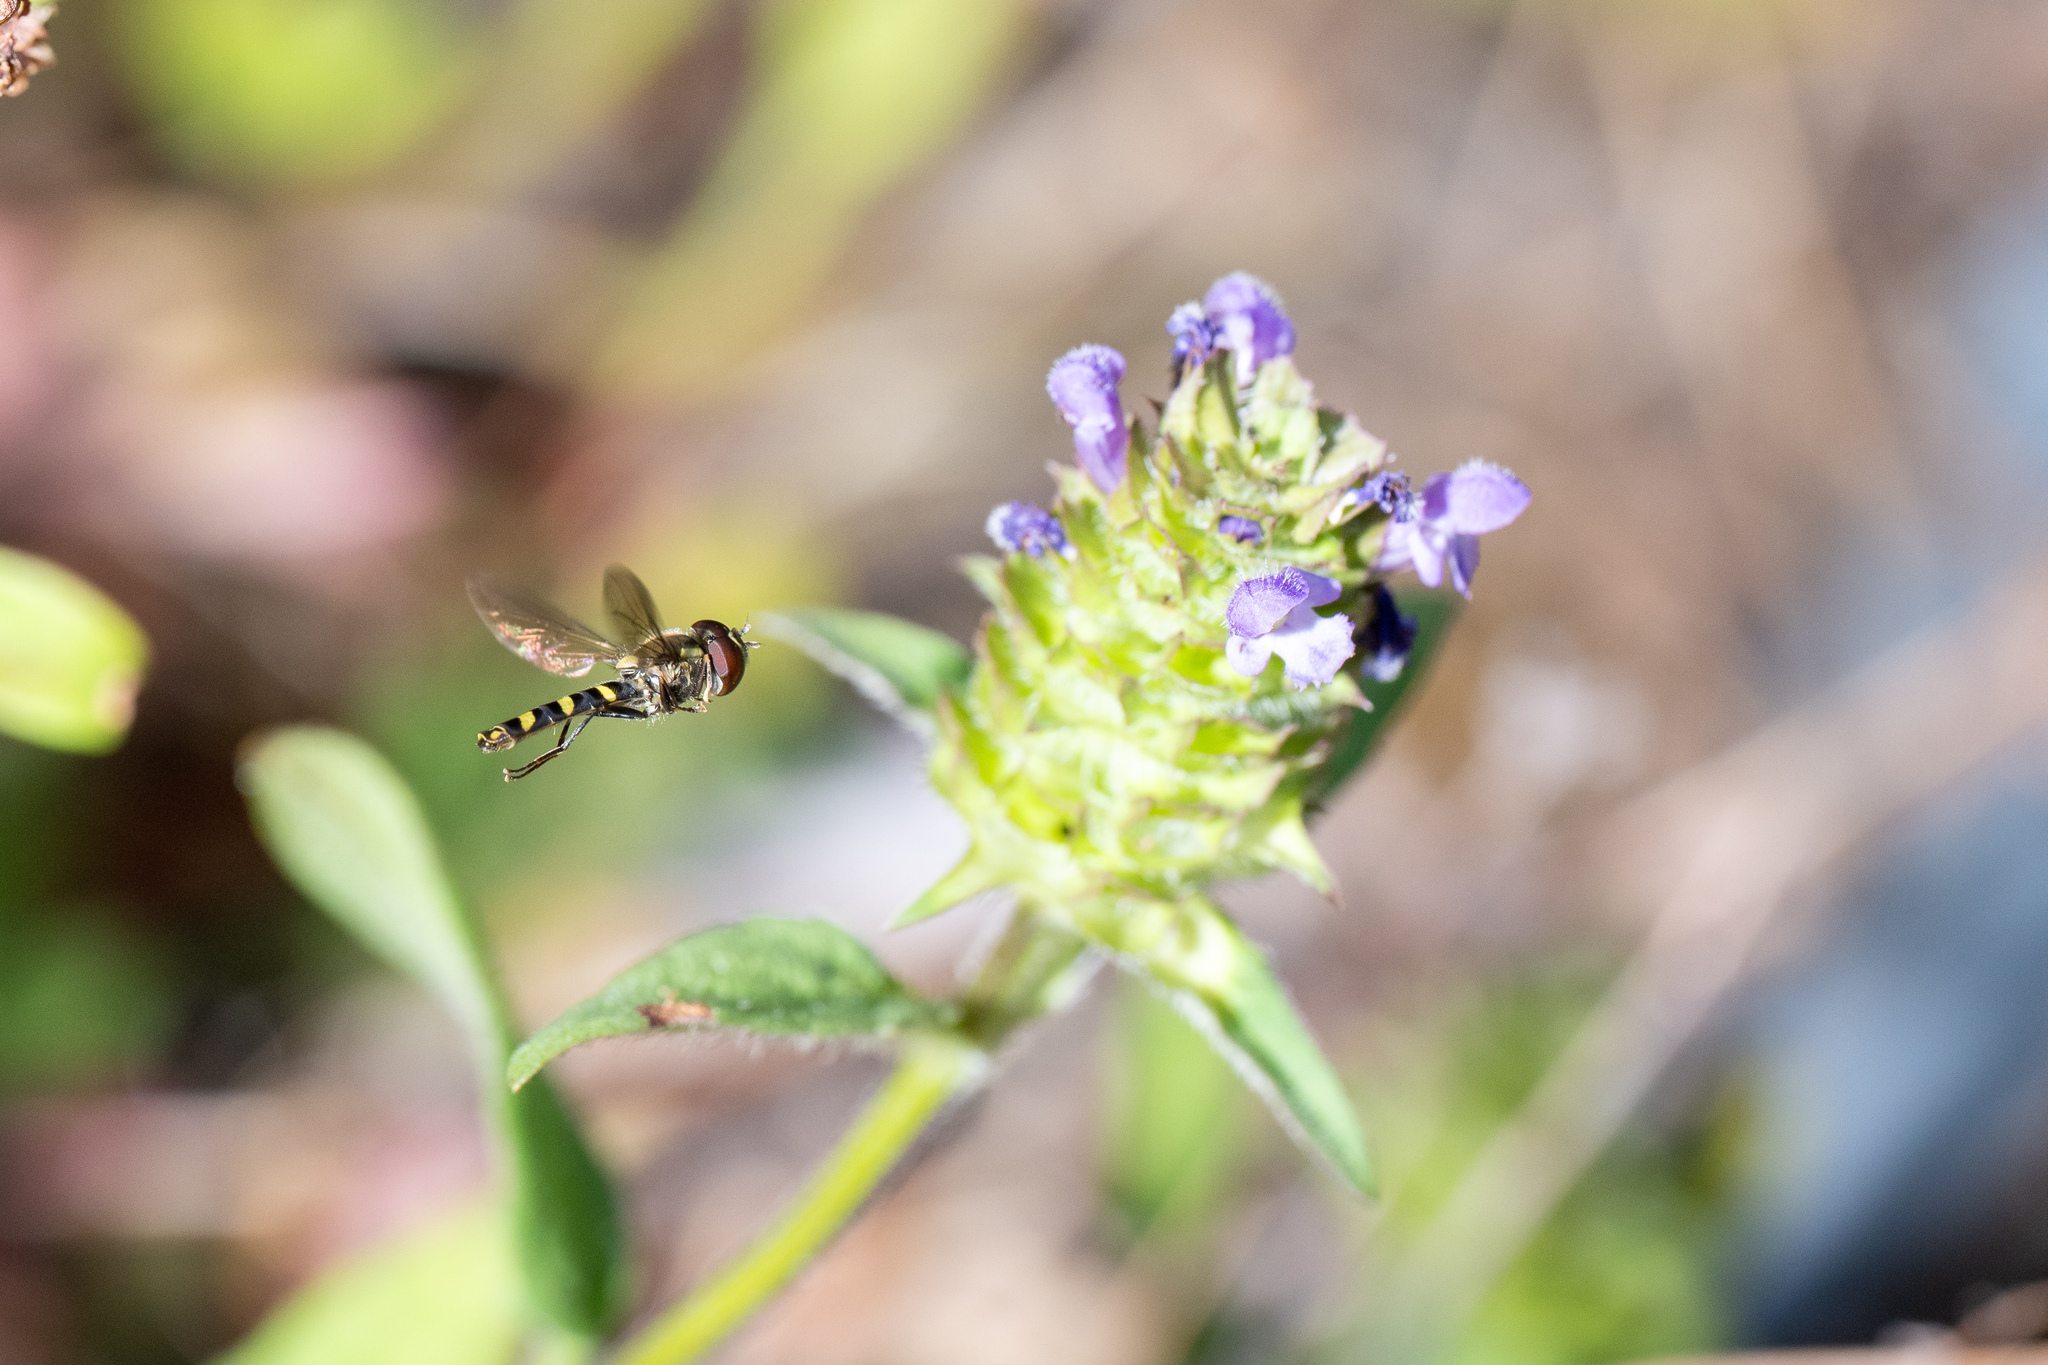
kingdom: Animalia
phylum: Arthropoda
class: Insecta
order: Diptera
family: Syrphidae
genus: Fazia
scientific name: Fazia micrura
